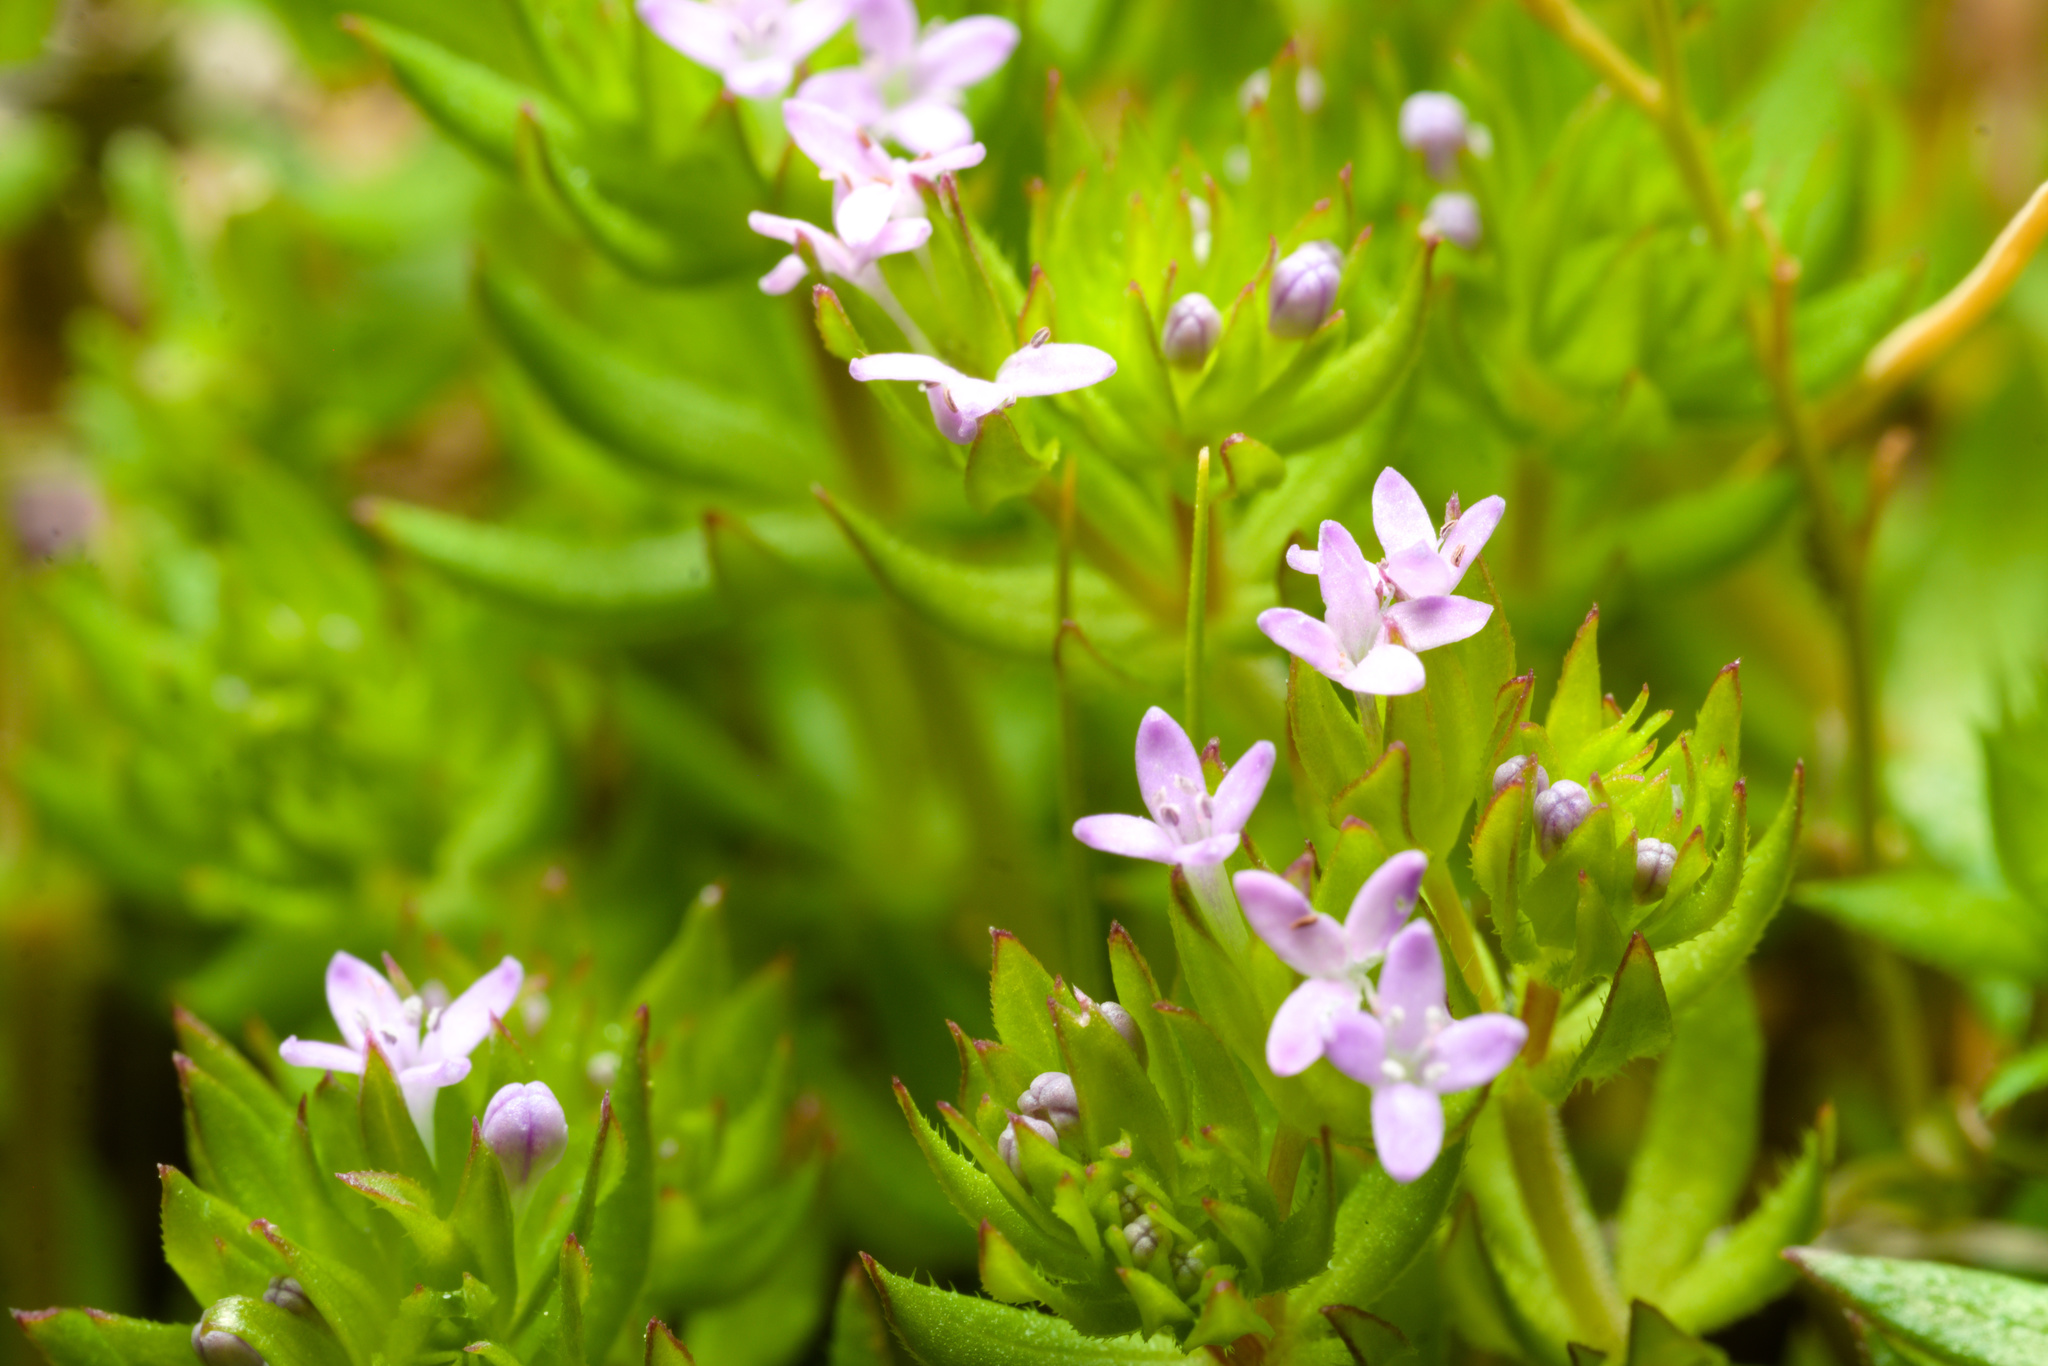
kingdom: Plantae
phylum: Tracheophyta
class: Magnoliopsida
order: Gentianales
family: Rubiaceae
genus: Sherardia
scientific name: Sherardia arvensis
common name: Field madder
